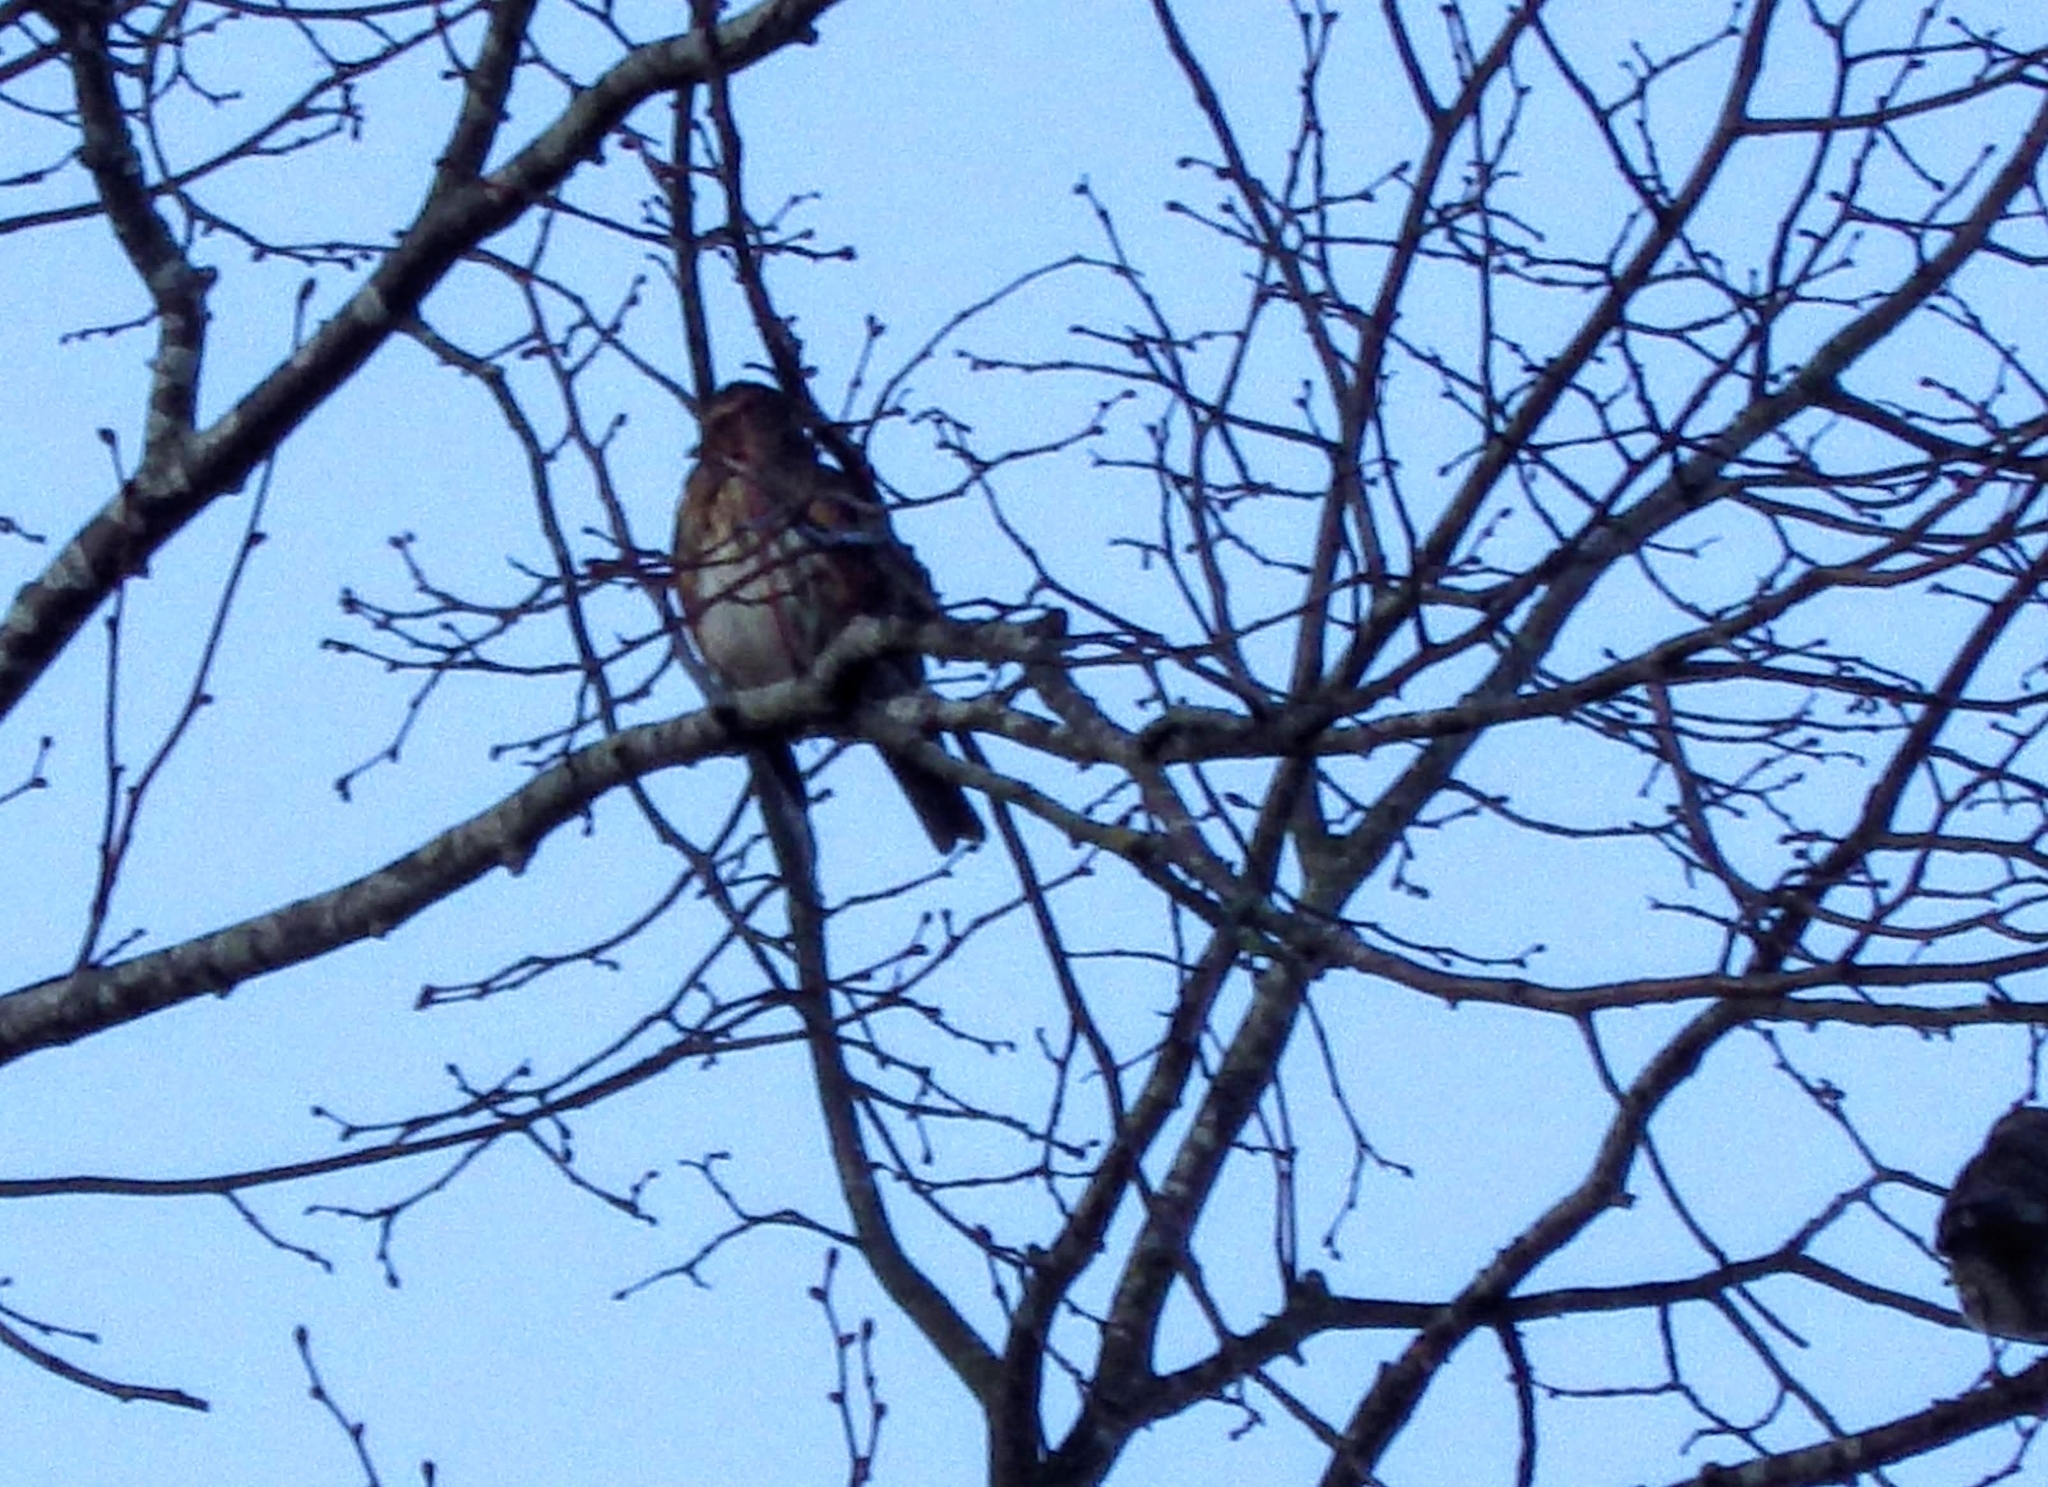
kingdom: Animalia
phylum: Chordata
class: Aves
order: Passeriformes
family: Turdidae
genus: Turdus
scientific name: Turdus iliacus
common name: Redwing
